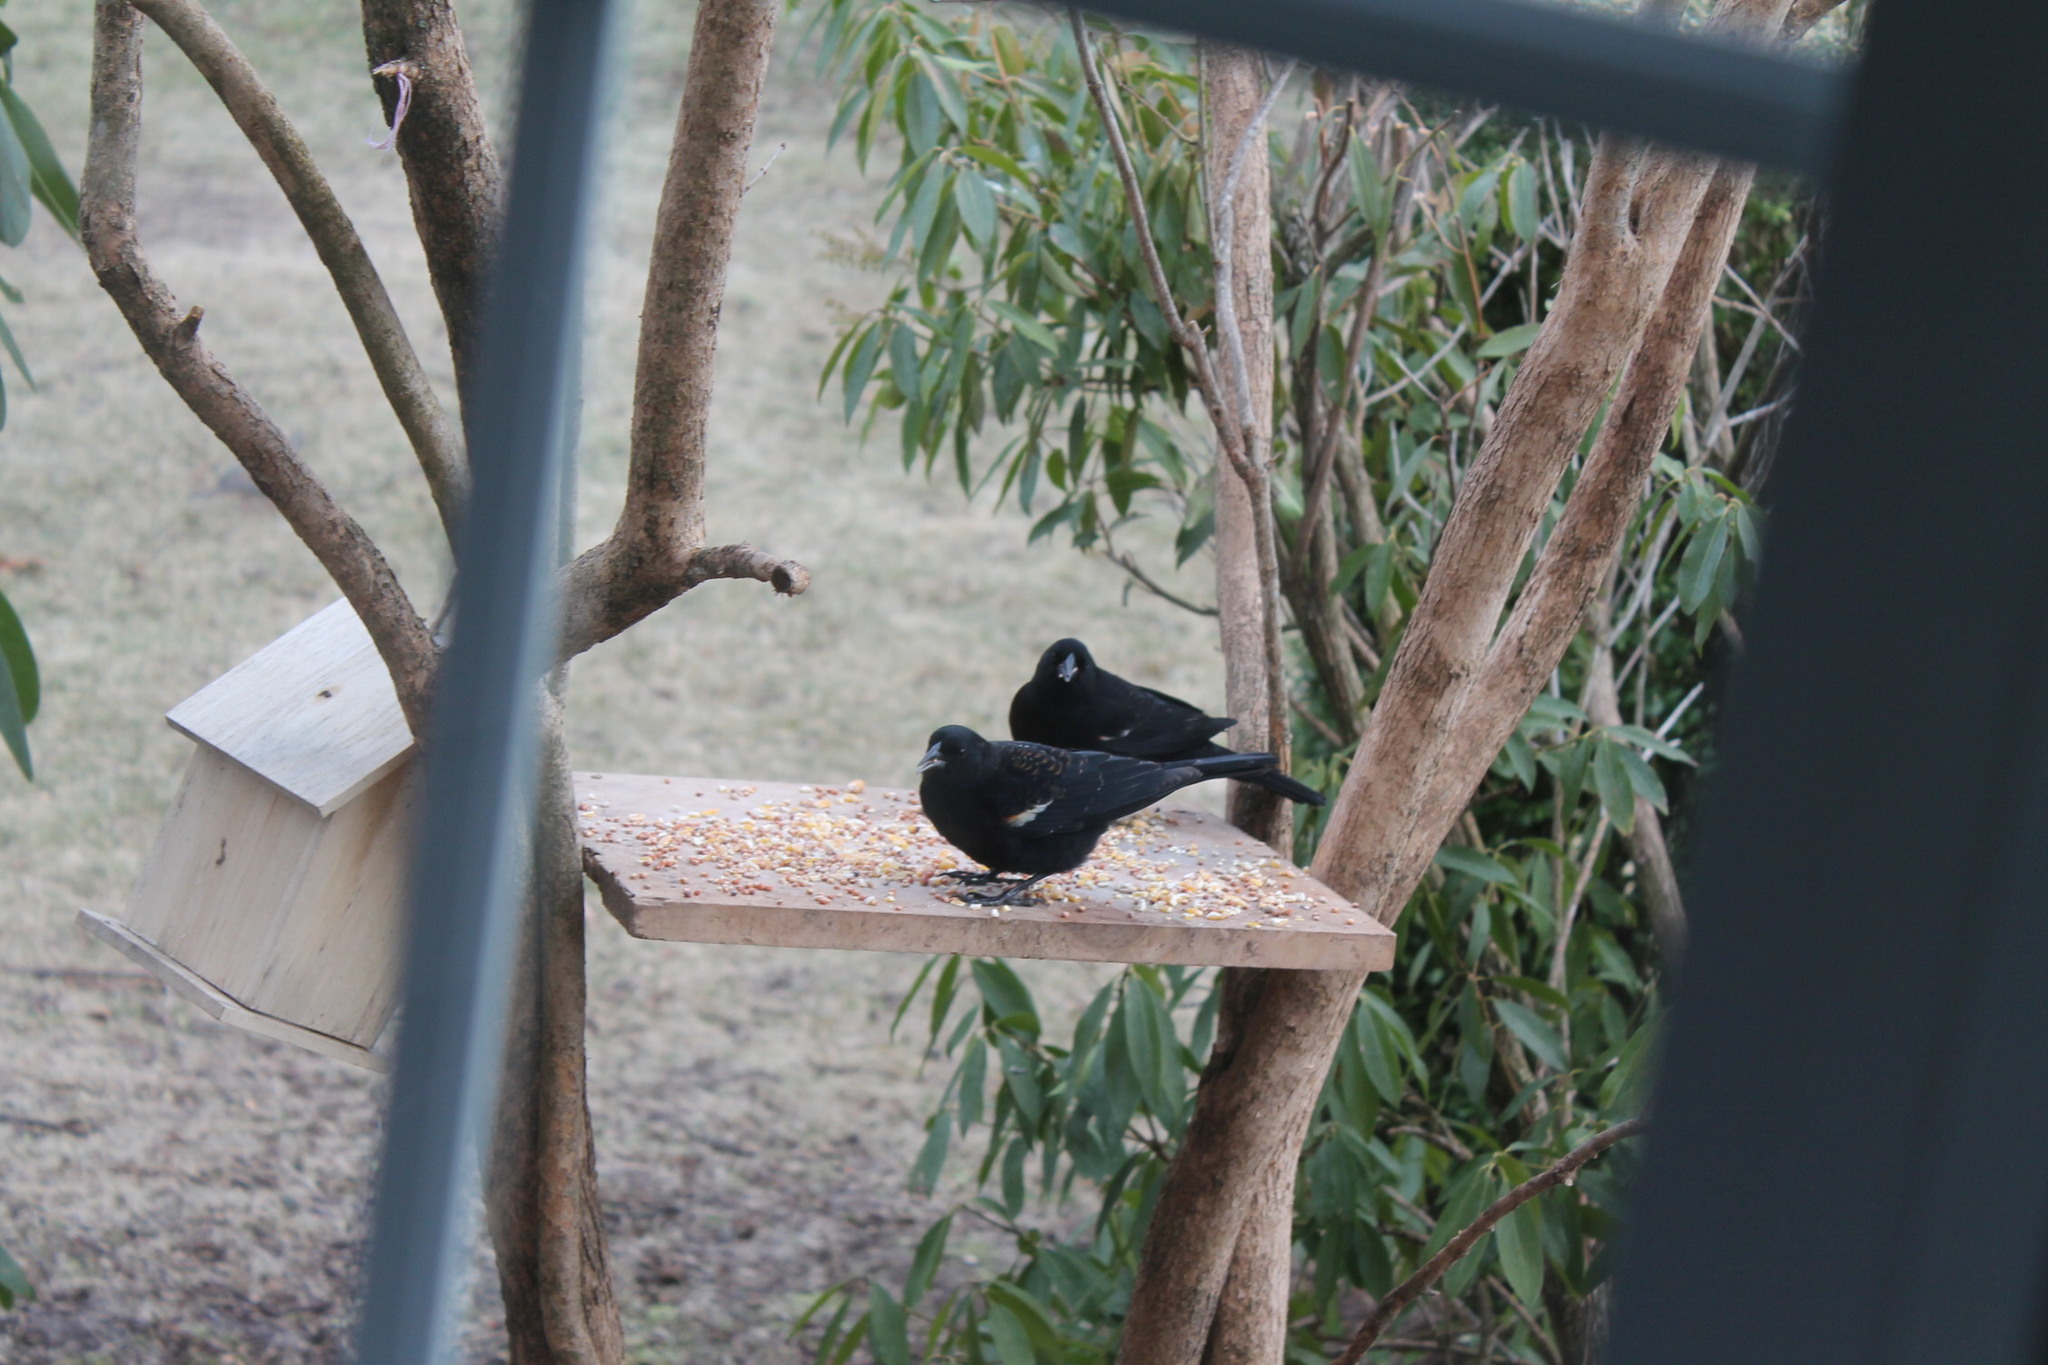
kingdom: Animalia
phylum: Chordata
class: Aves
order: Passeriformes
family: Icteridae
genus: Agelaius
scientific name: Agelaius phoeniceus
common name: Red-winged blackbird
